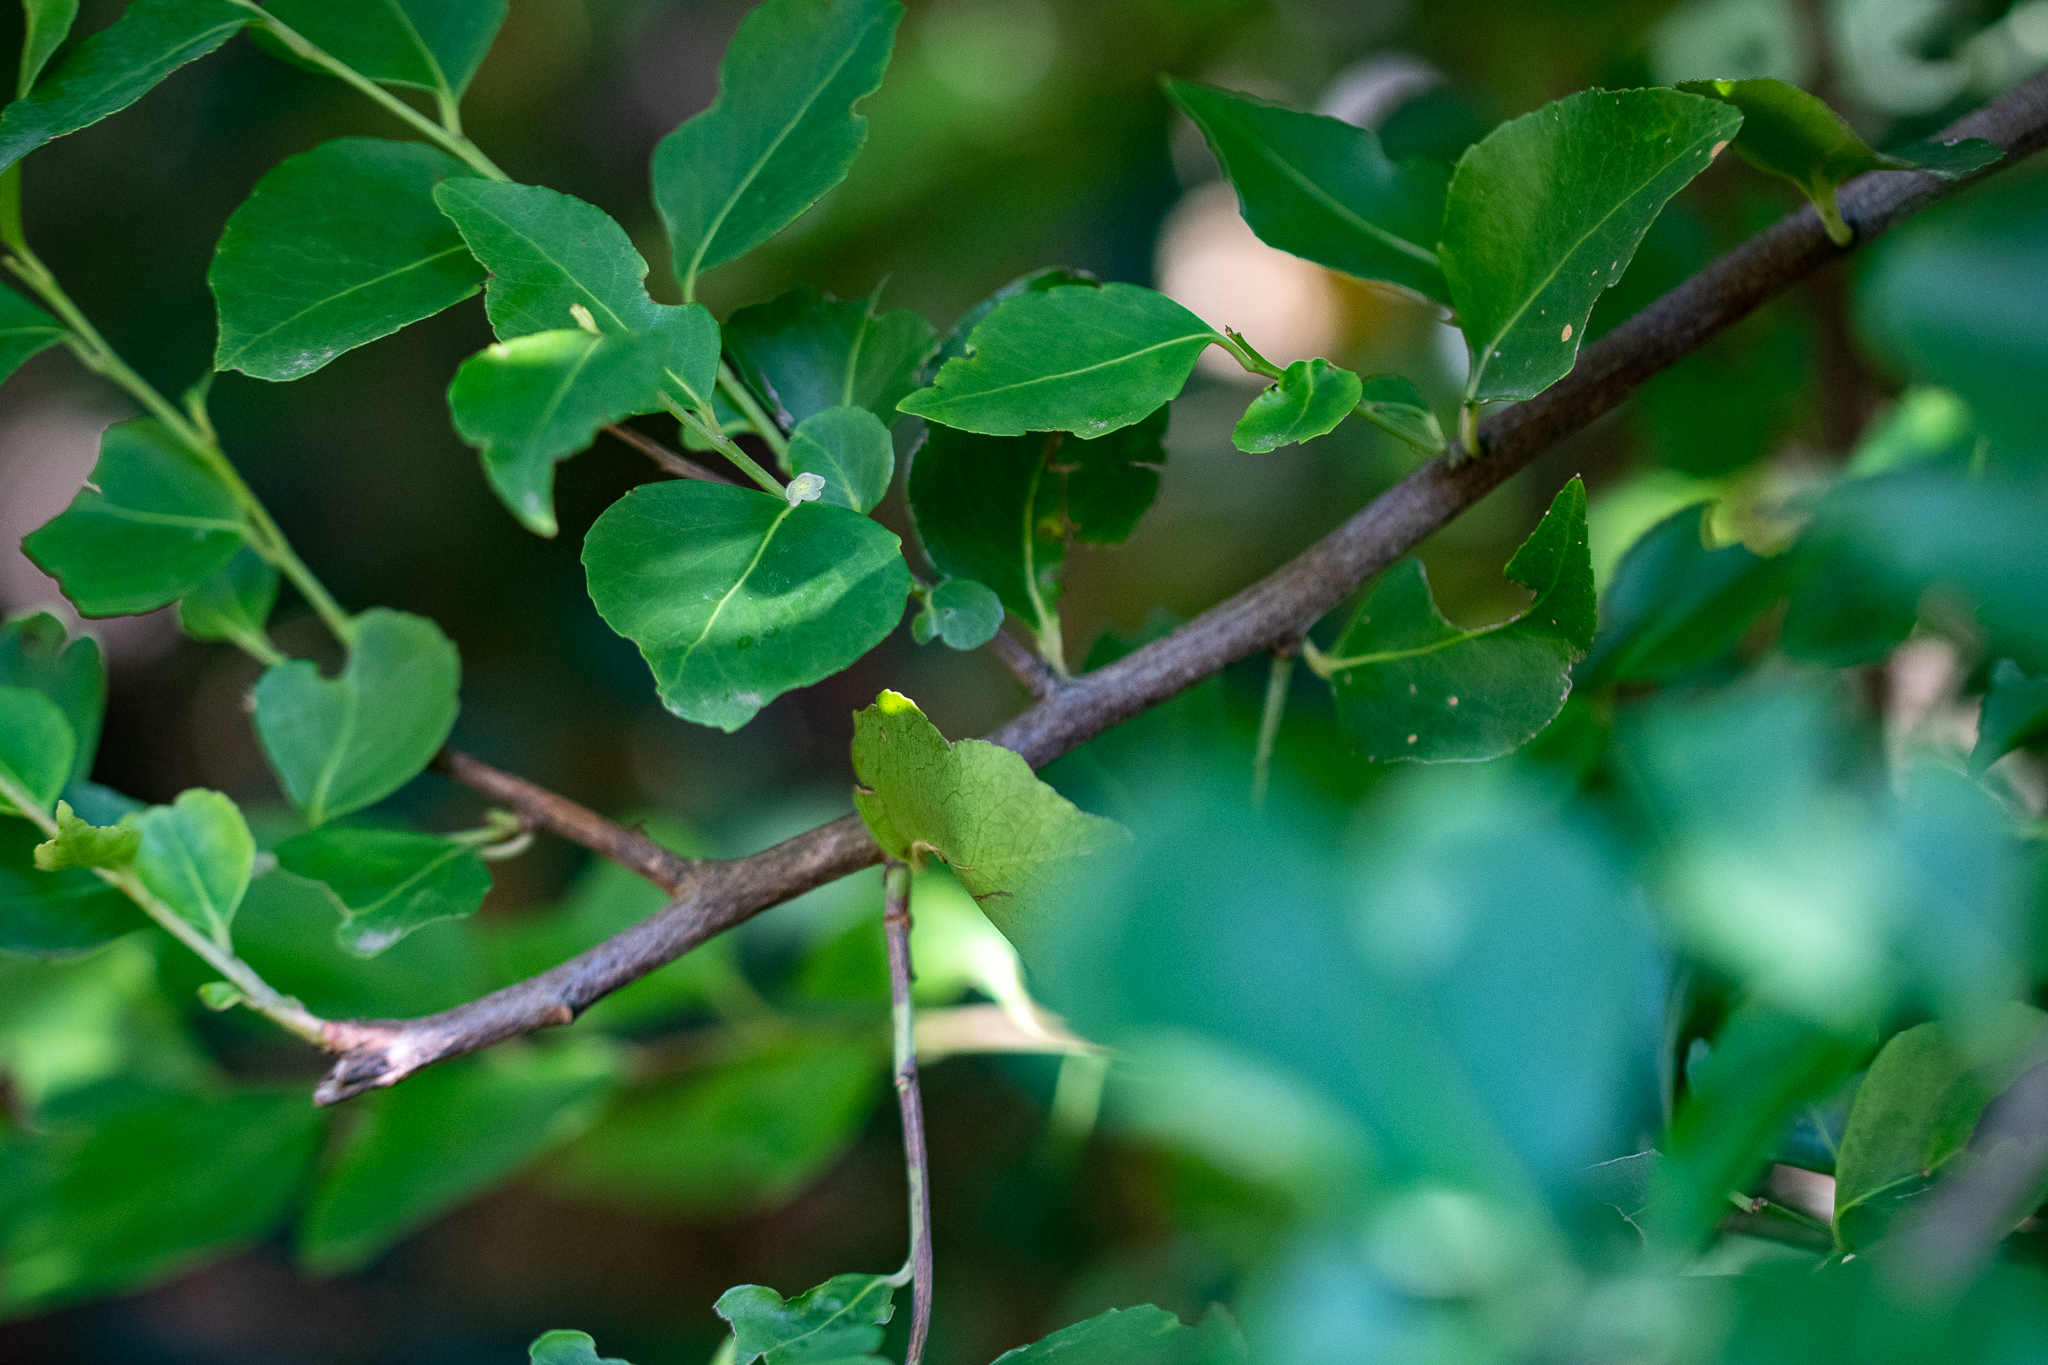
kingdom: Plantae
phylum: Tracheophyta
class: Magnoliopsida
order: Celastrales
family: Celastraceae
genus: Gymnosporia
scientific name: Gymnosporia acuminata
